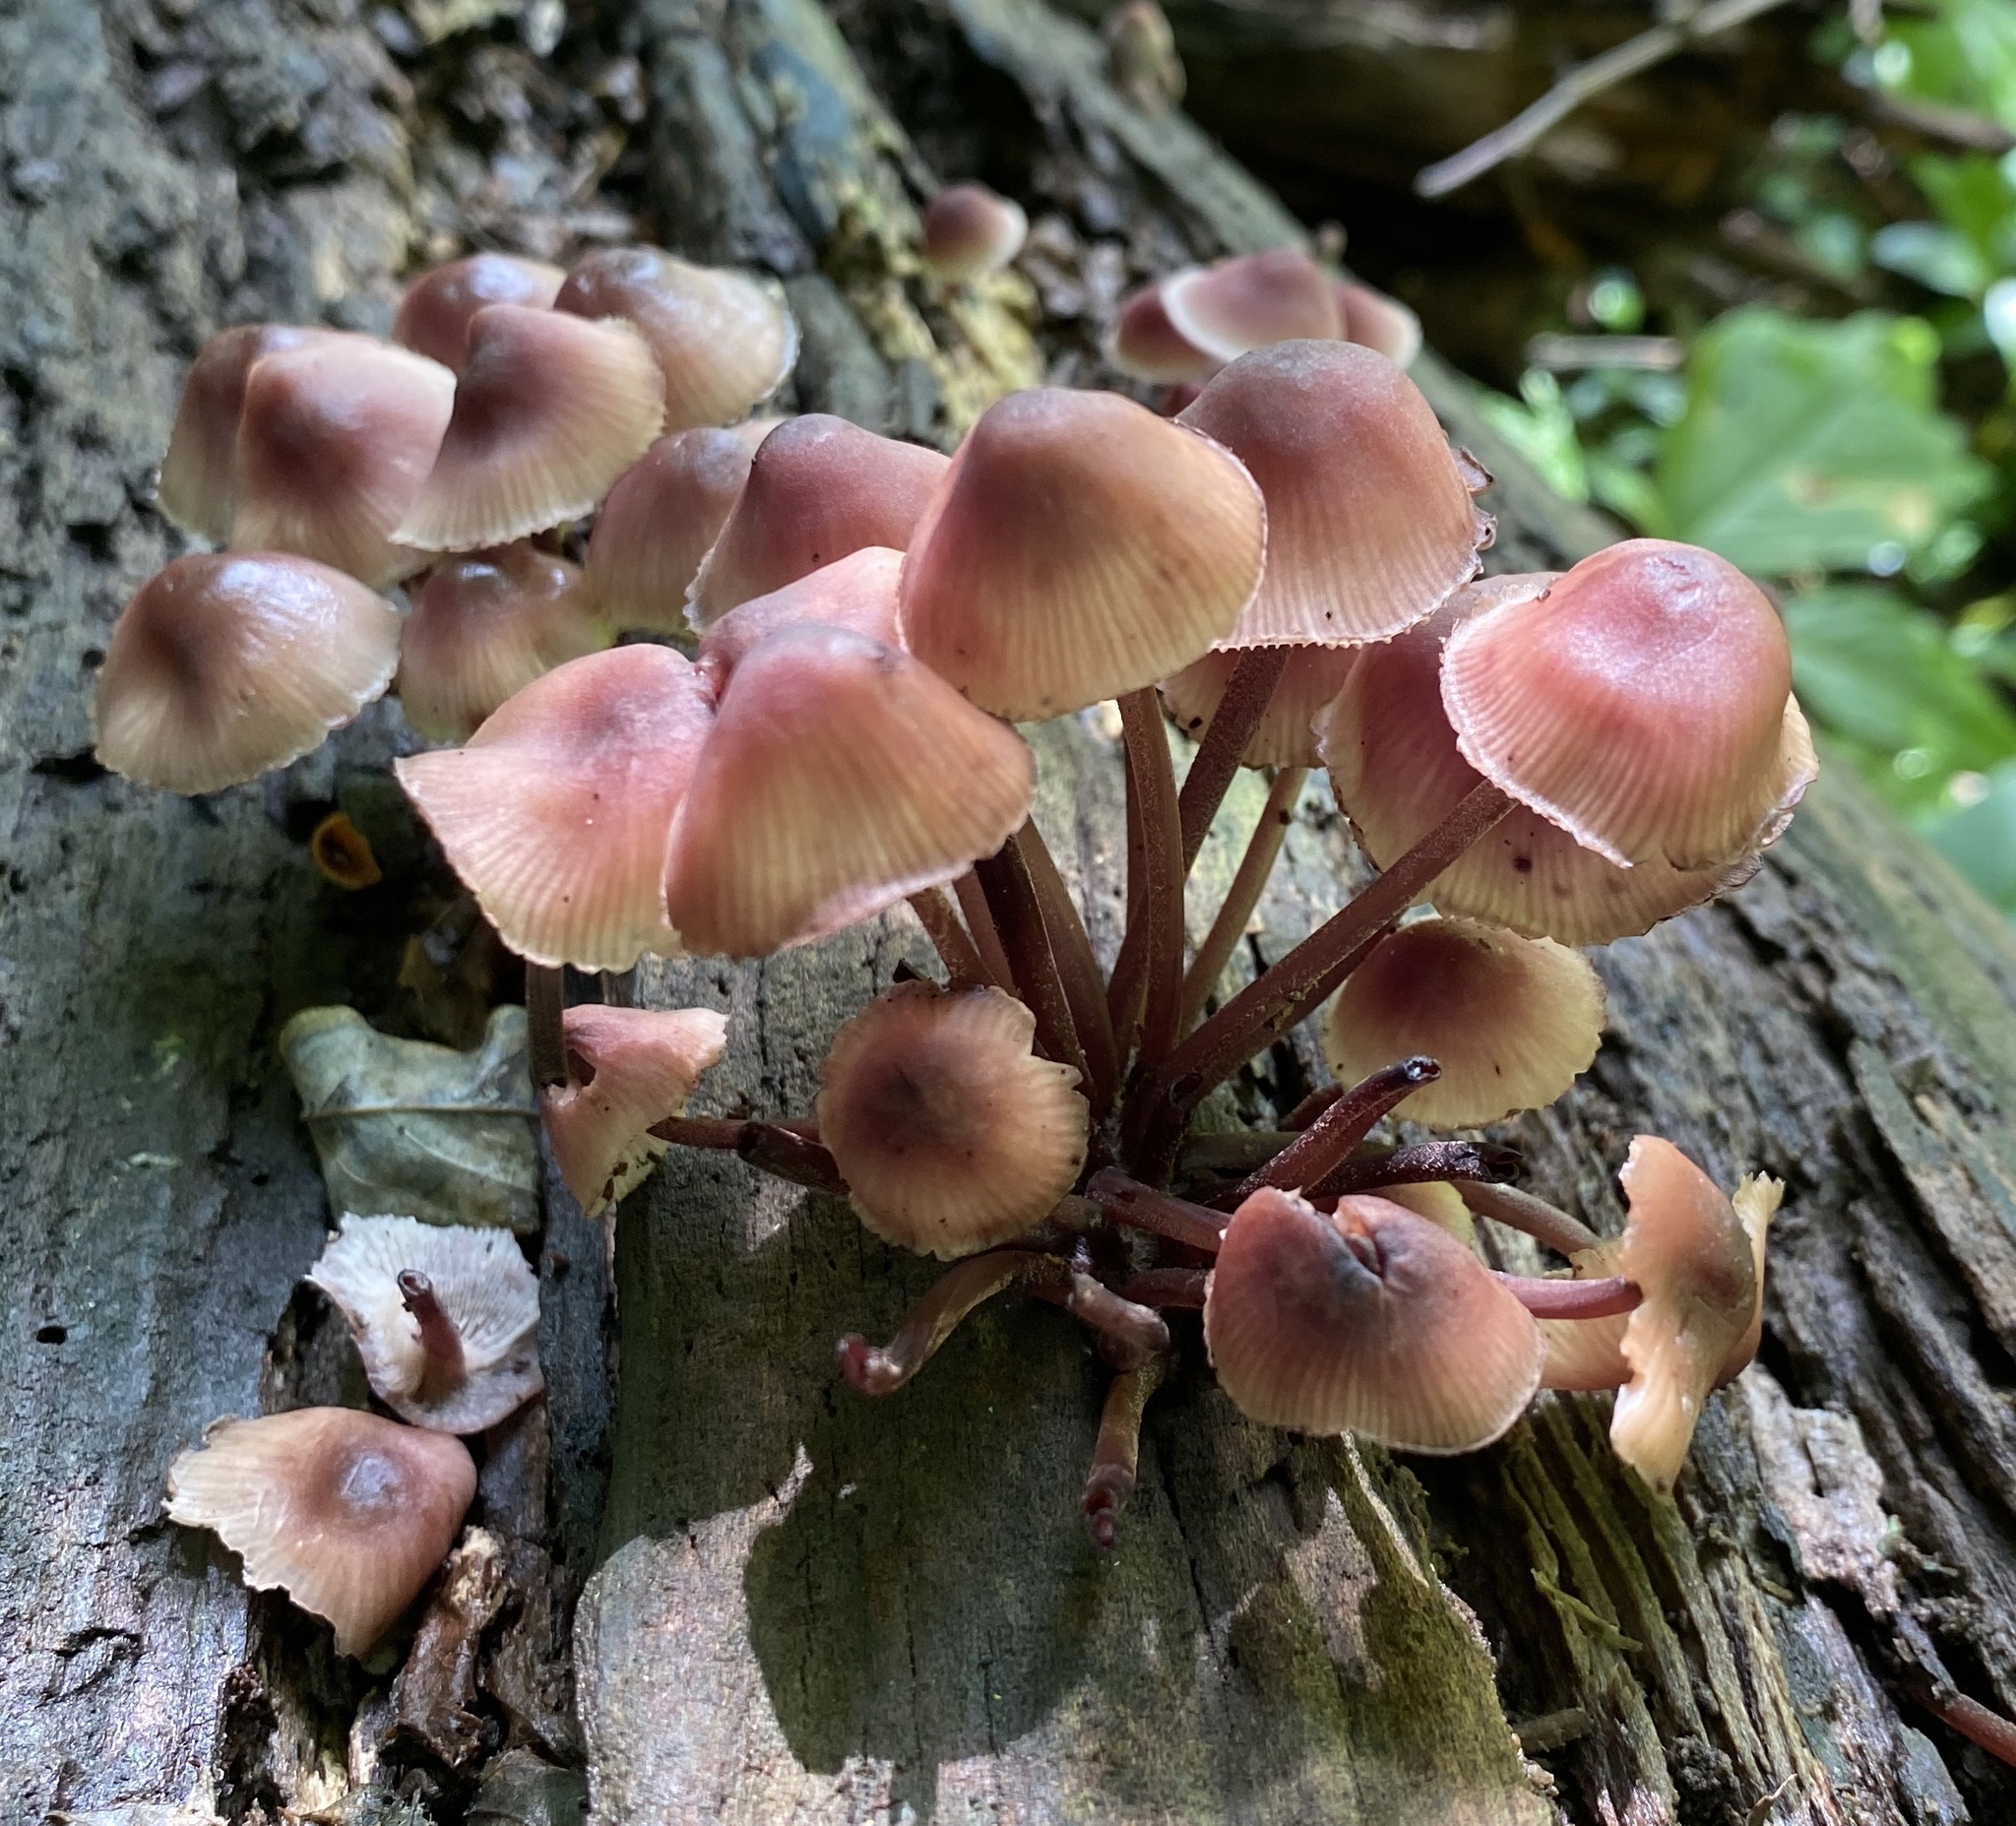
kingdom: Fungi
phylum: Basidiomycota
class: Agaricomycetes
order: Agaricales
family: Mycenaceae
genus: Mycena
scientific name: Mycena haematopus
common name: Burgundydrop bonnet
